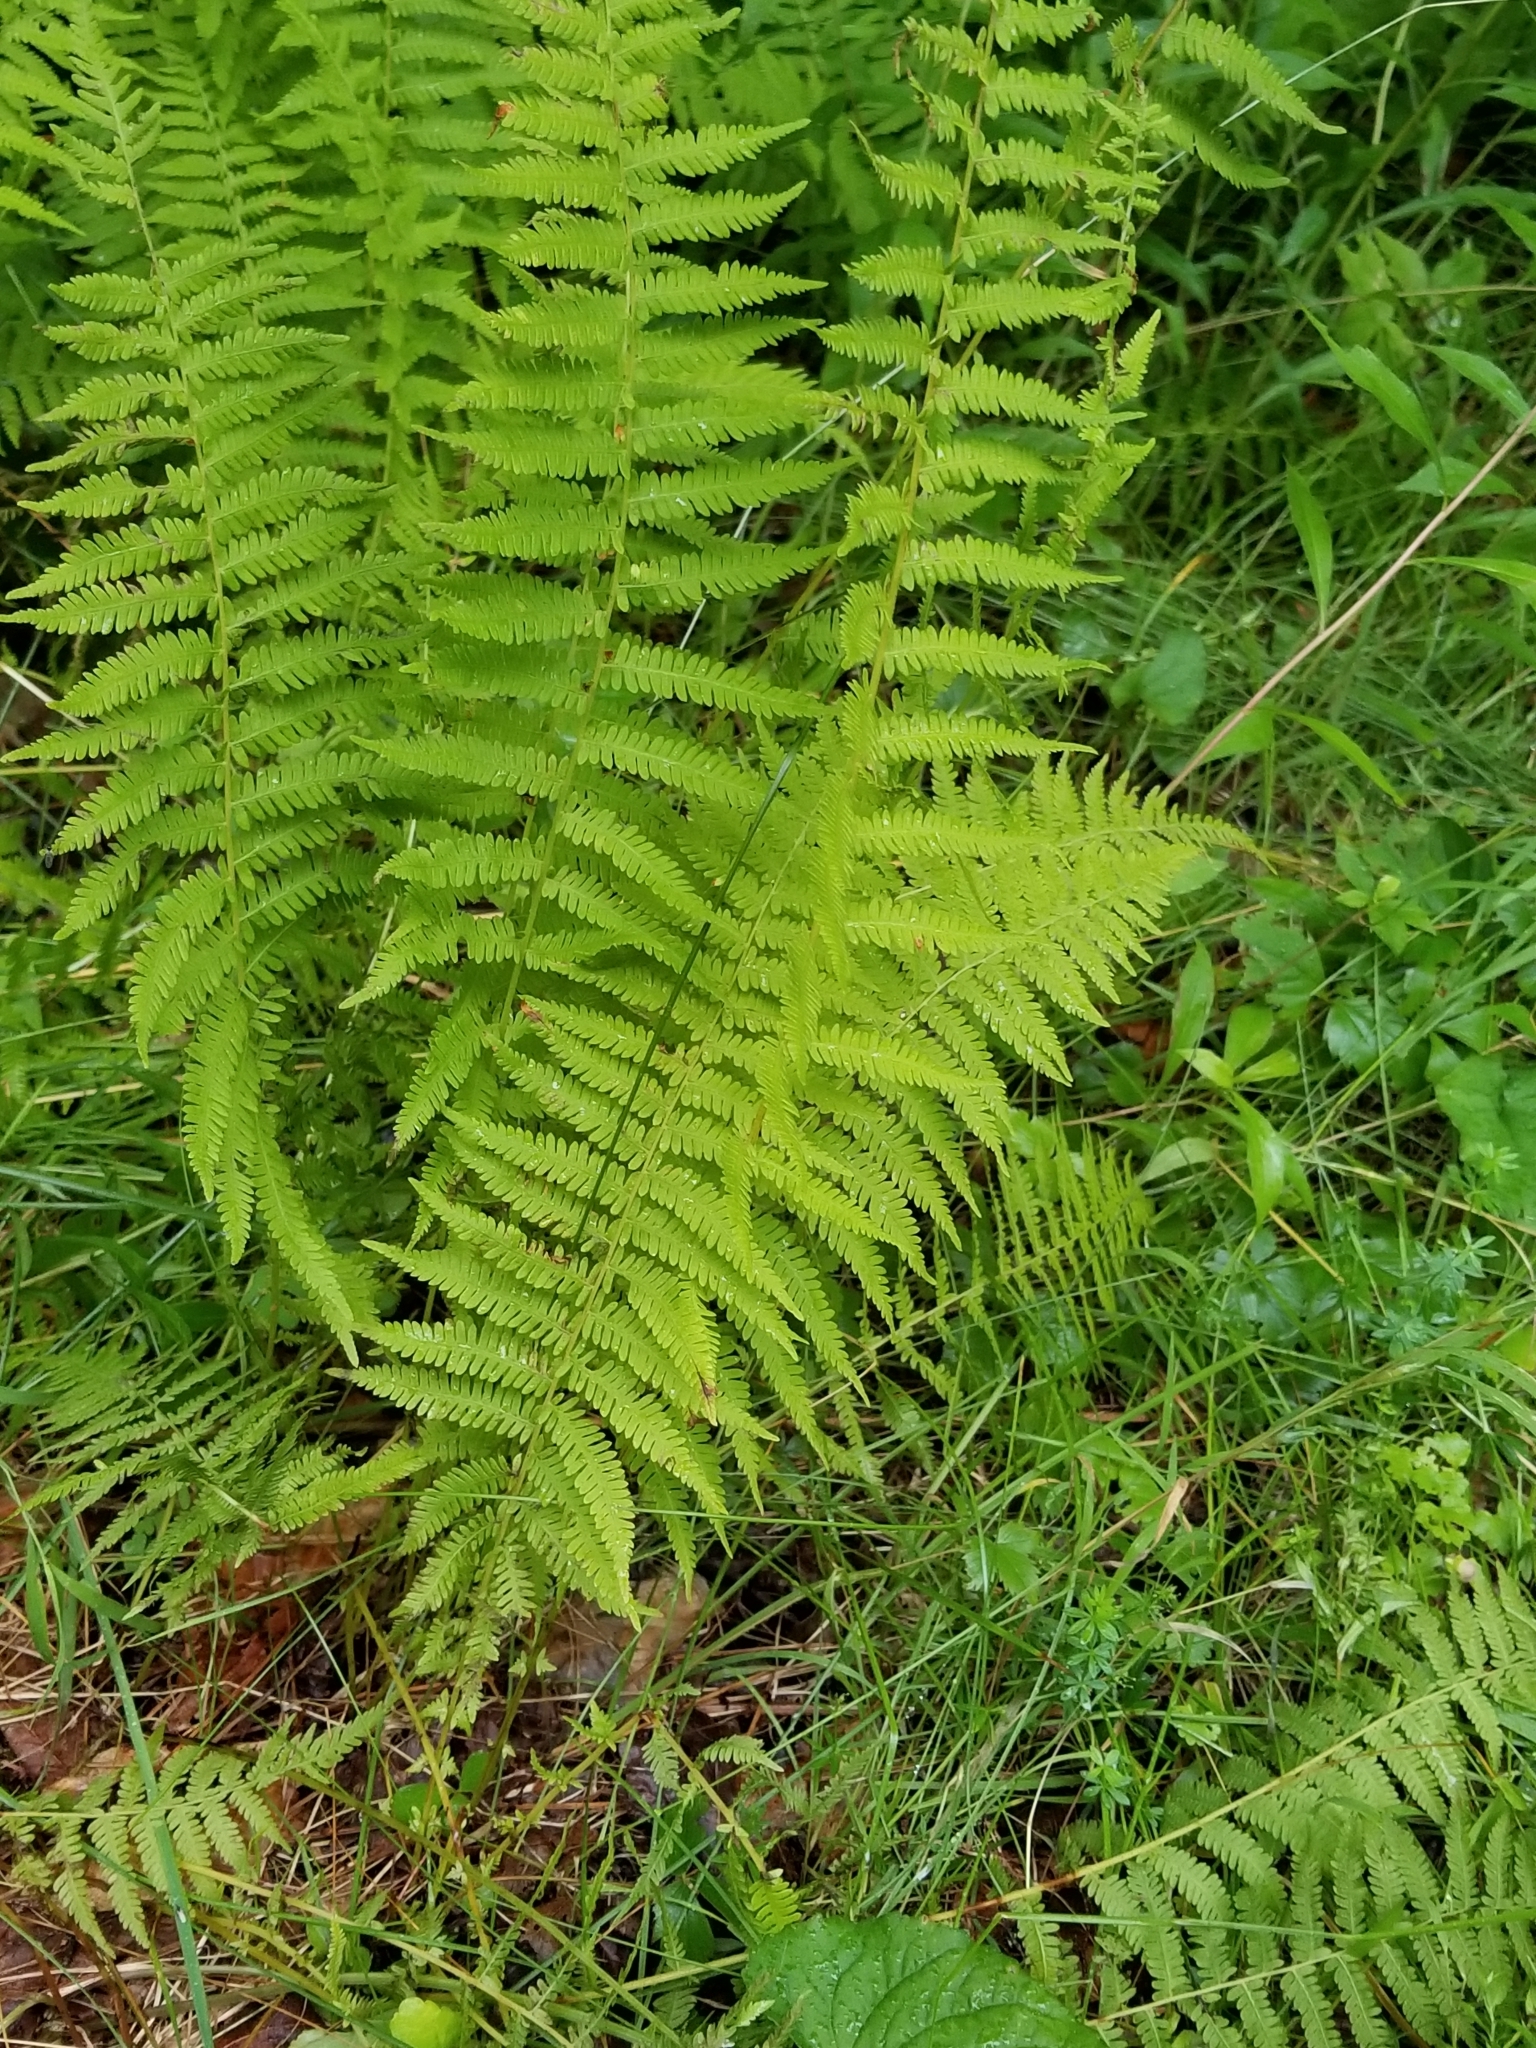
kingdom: Plantae
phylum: Tracheophyta
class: Polypodiopsida
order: Polypodiales
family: Thelypteridaceae
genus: Amauropelta
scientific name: Amauropelta noveboracensis
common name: New york fern
